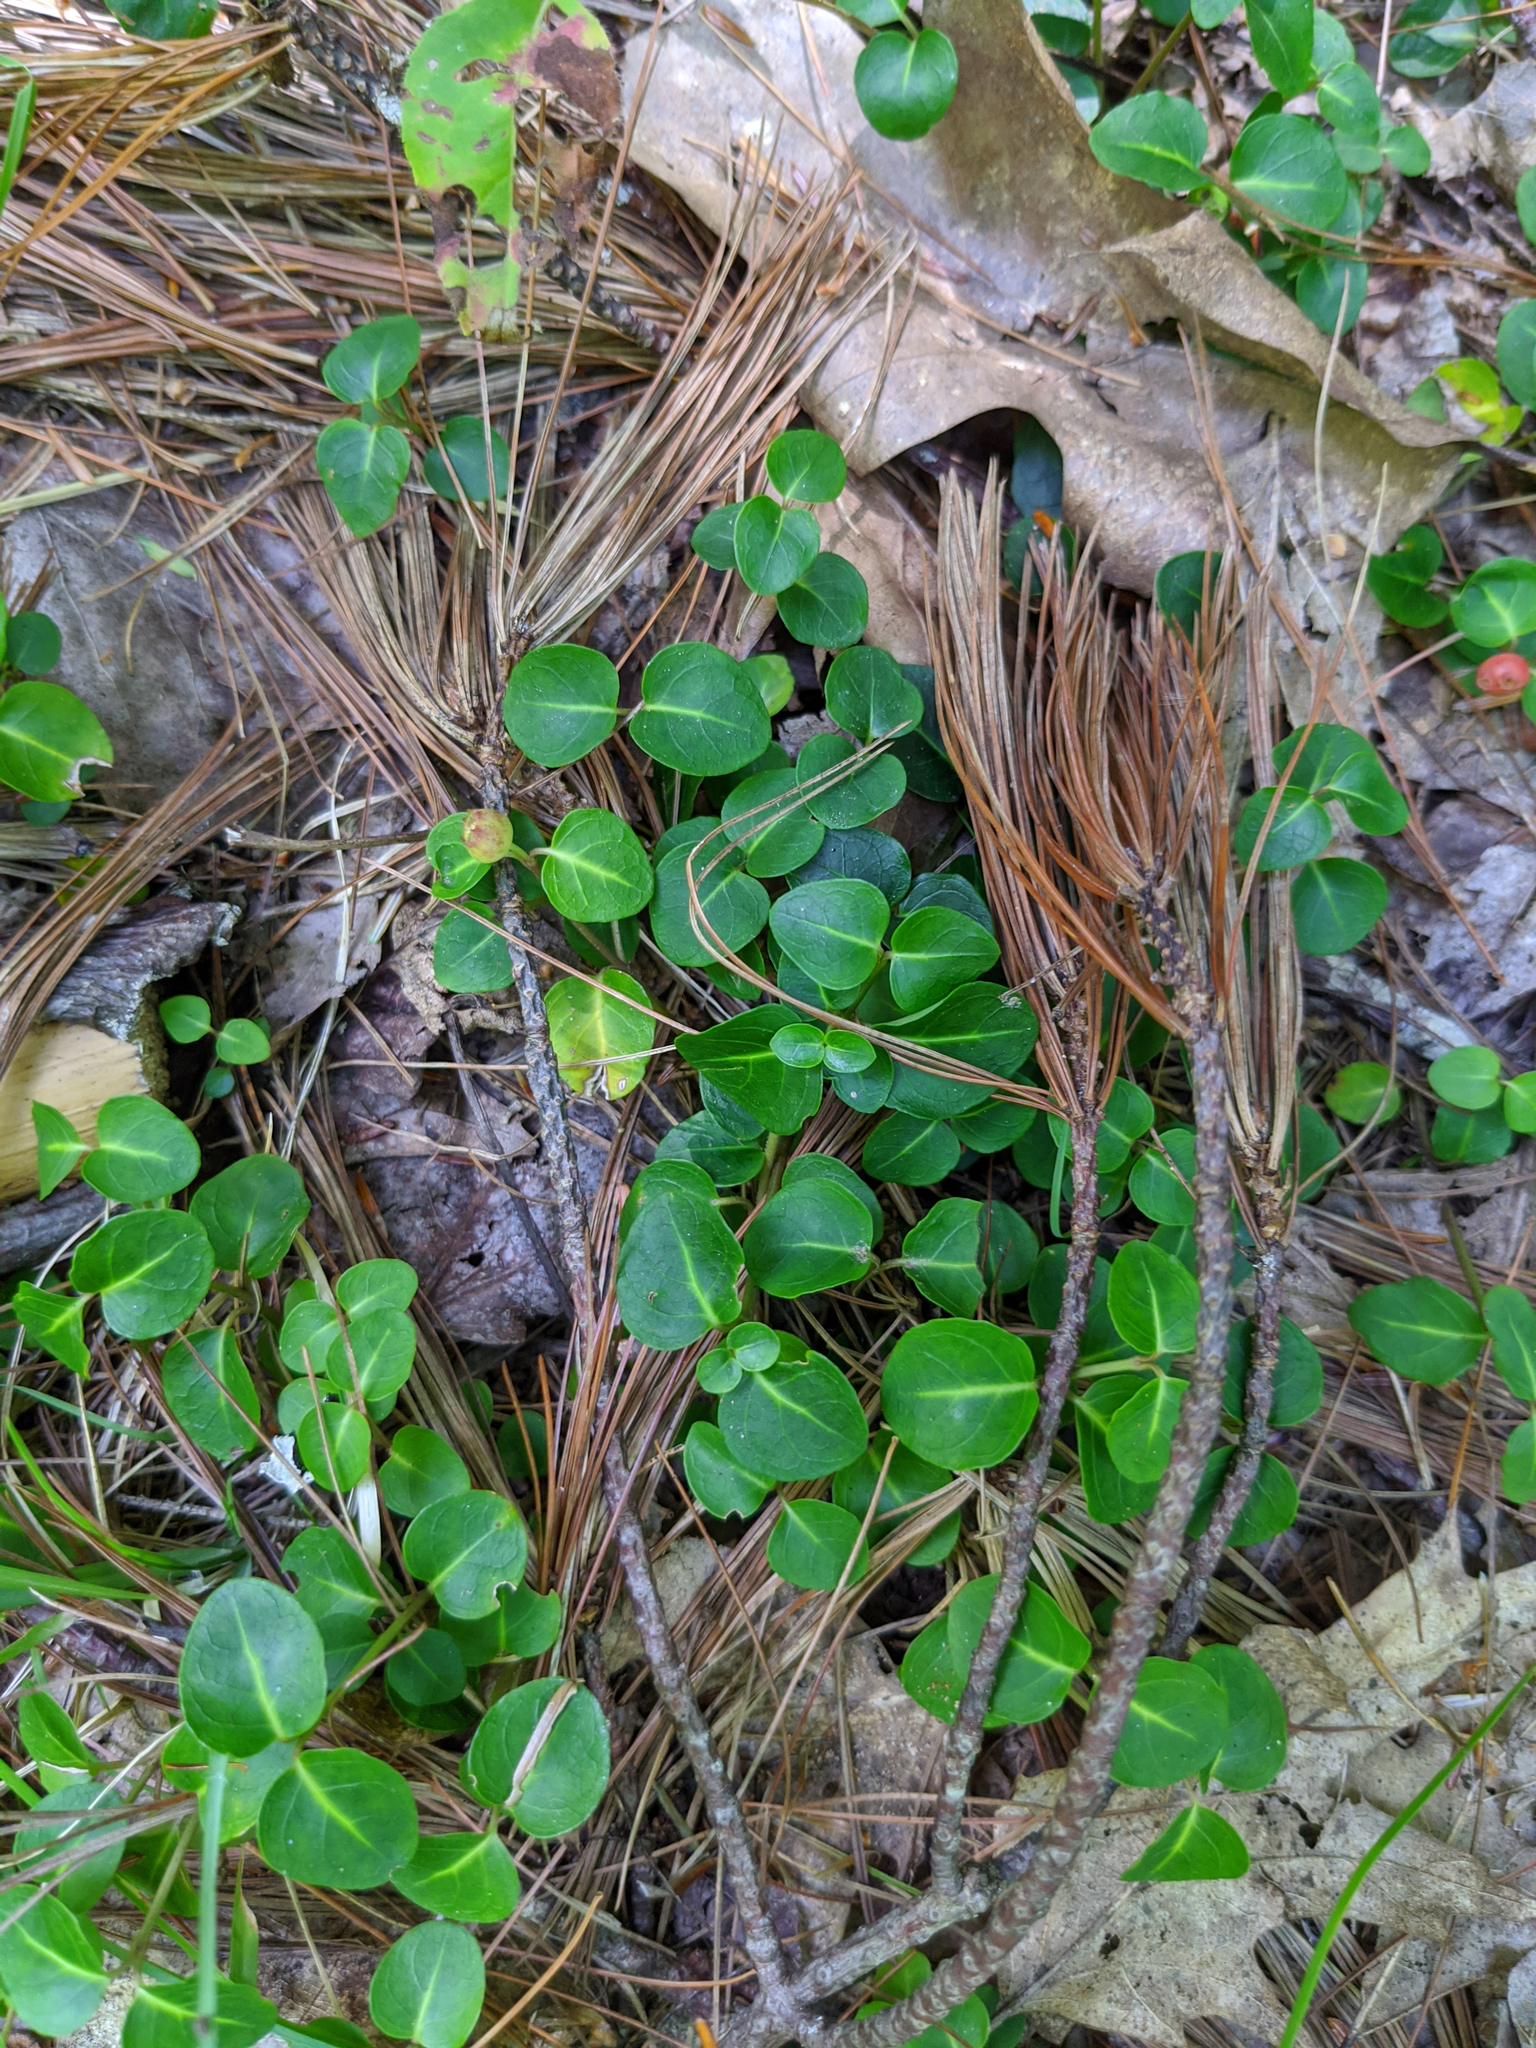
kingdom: Plantae
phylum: Tracheophyta
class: Magnoliopsida
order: Gentianales
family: Rubiaceae
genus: Mitchella
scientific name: Mitchella repens
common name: Partridge-berry
